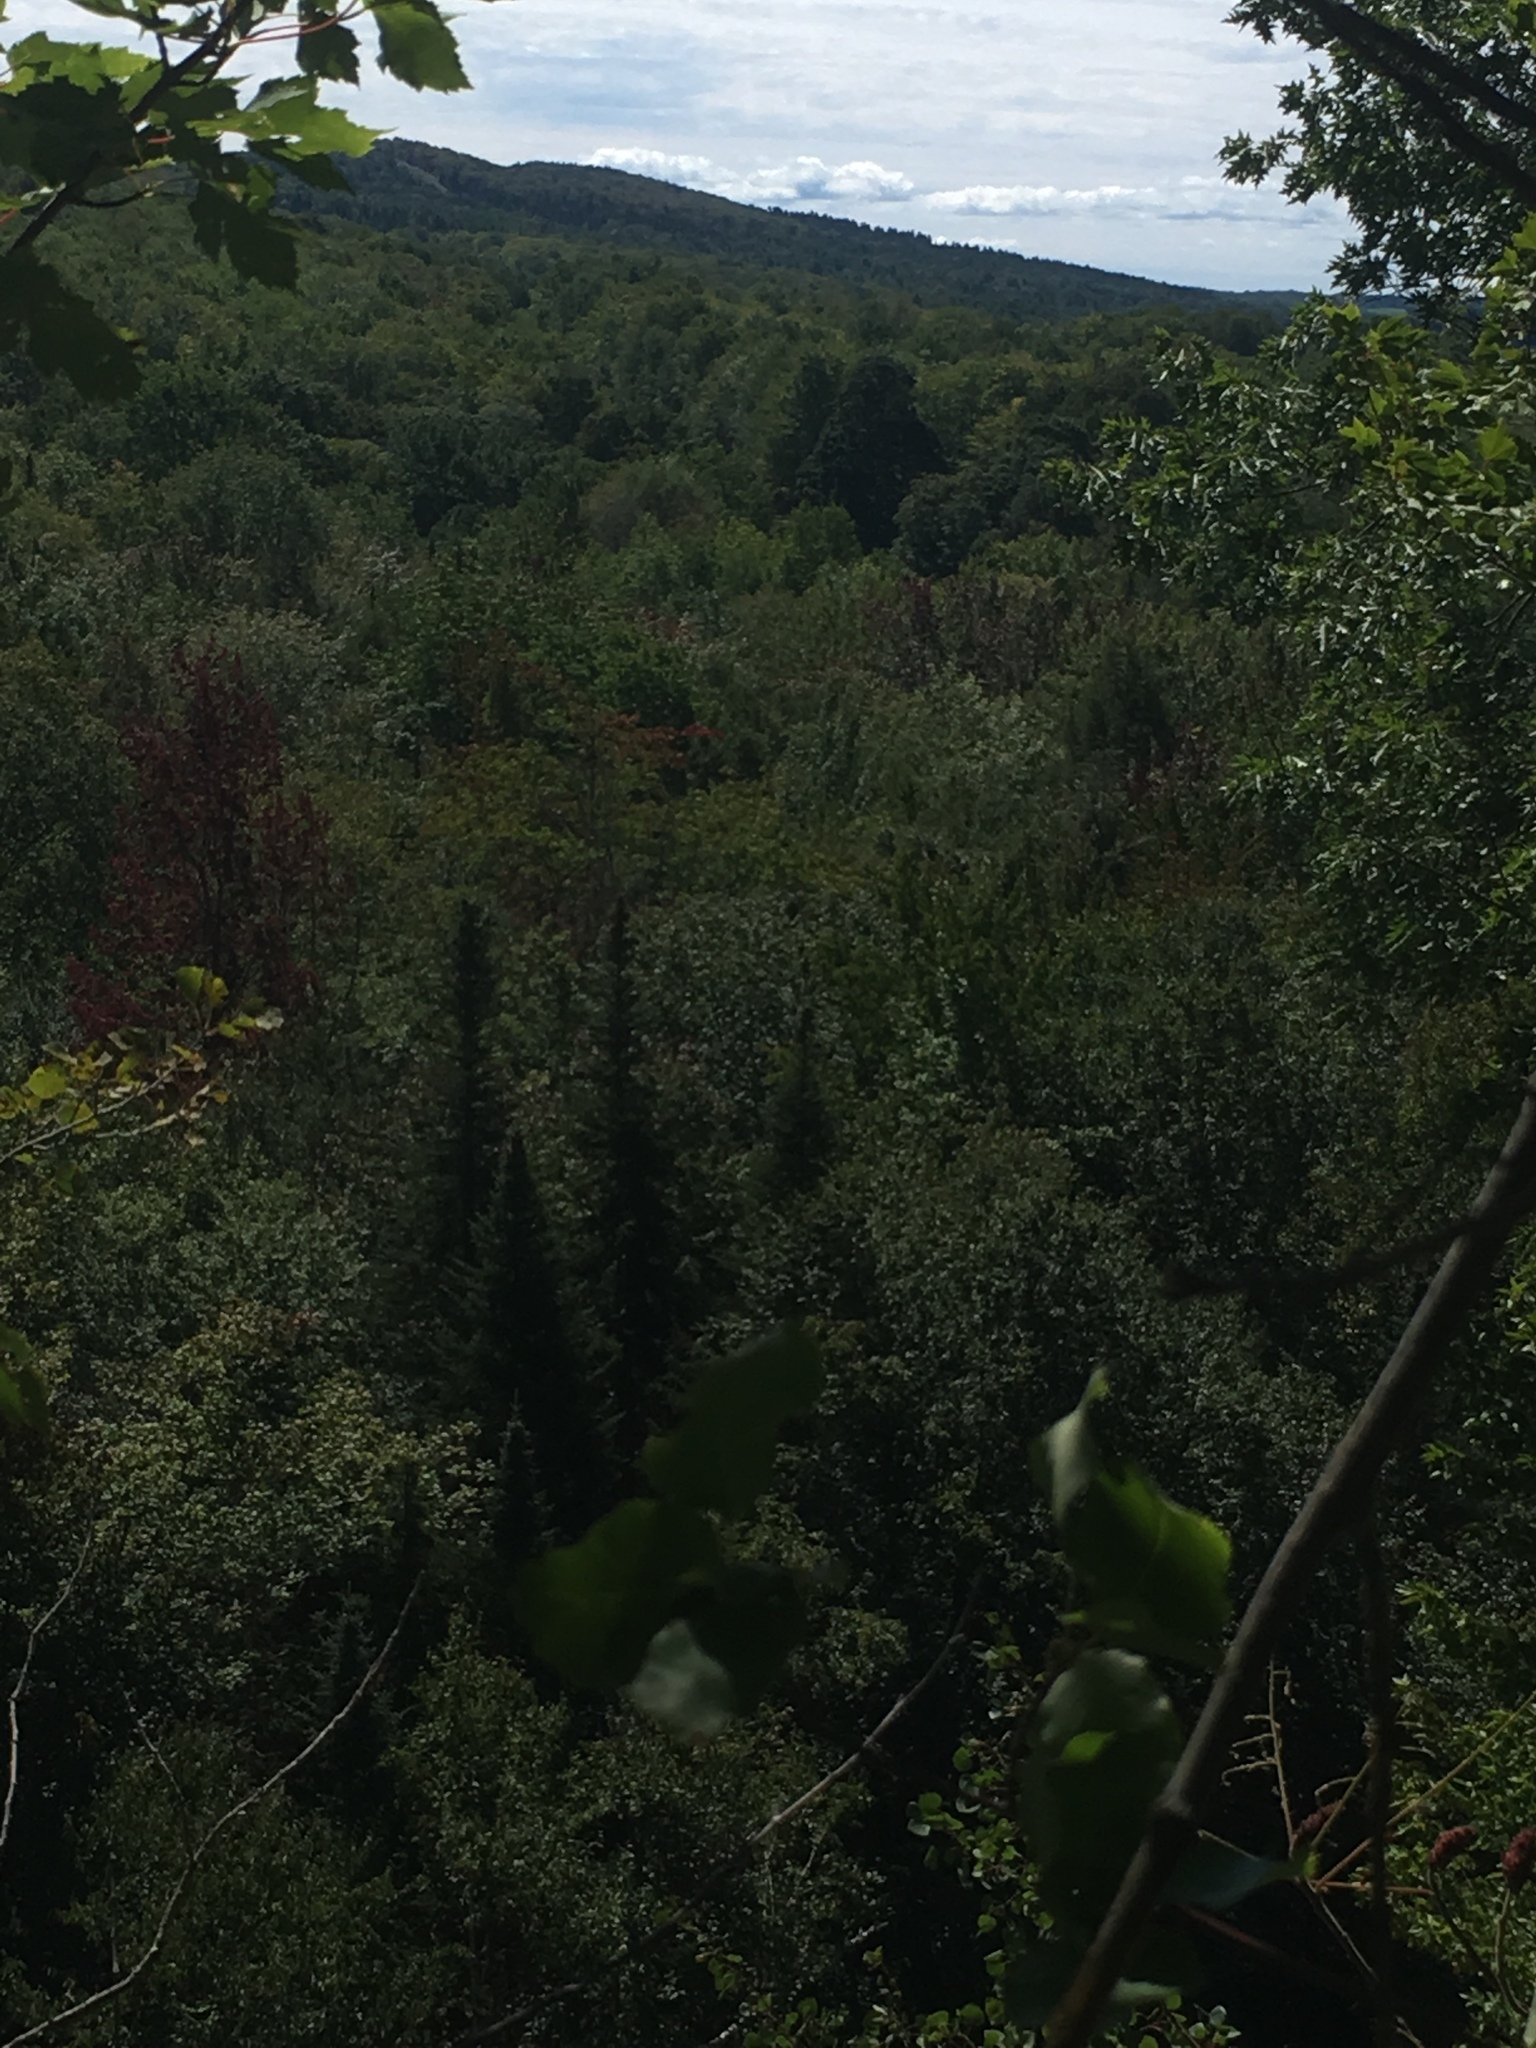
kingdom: Plantae
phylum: Tracheophyta
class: Magnoliopsida
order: Sapindales
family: Sapindaceae
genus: Acer
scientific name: Acer rubrum
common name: Red maple
